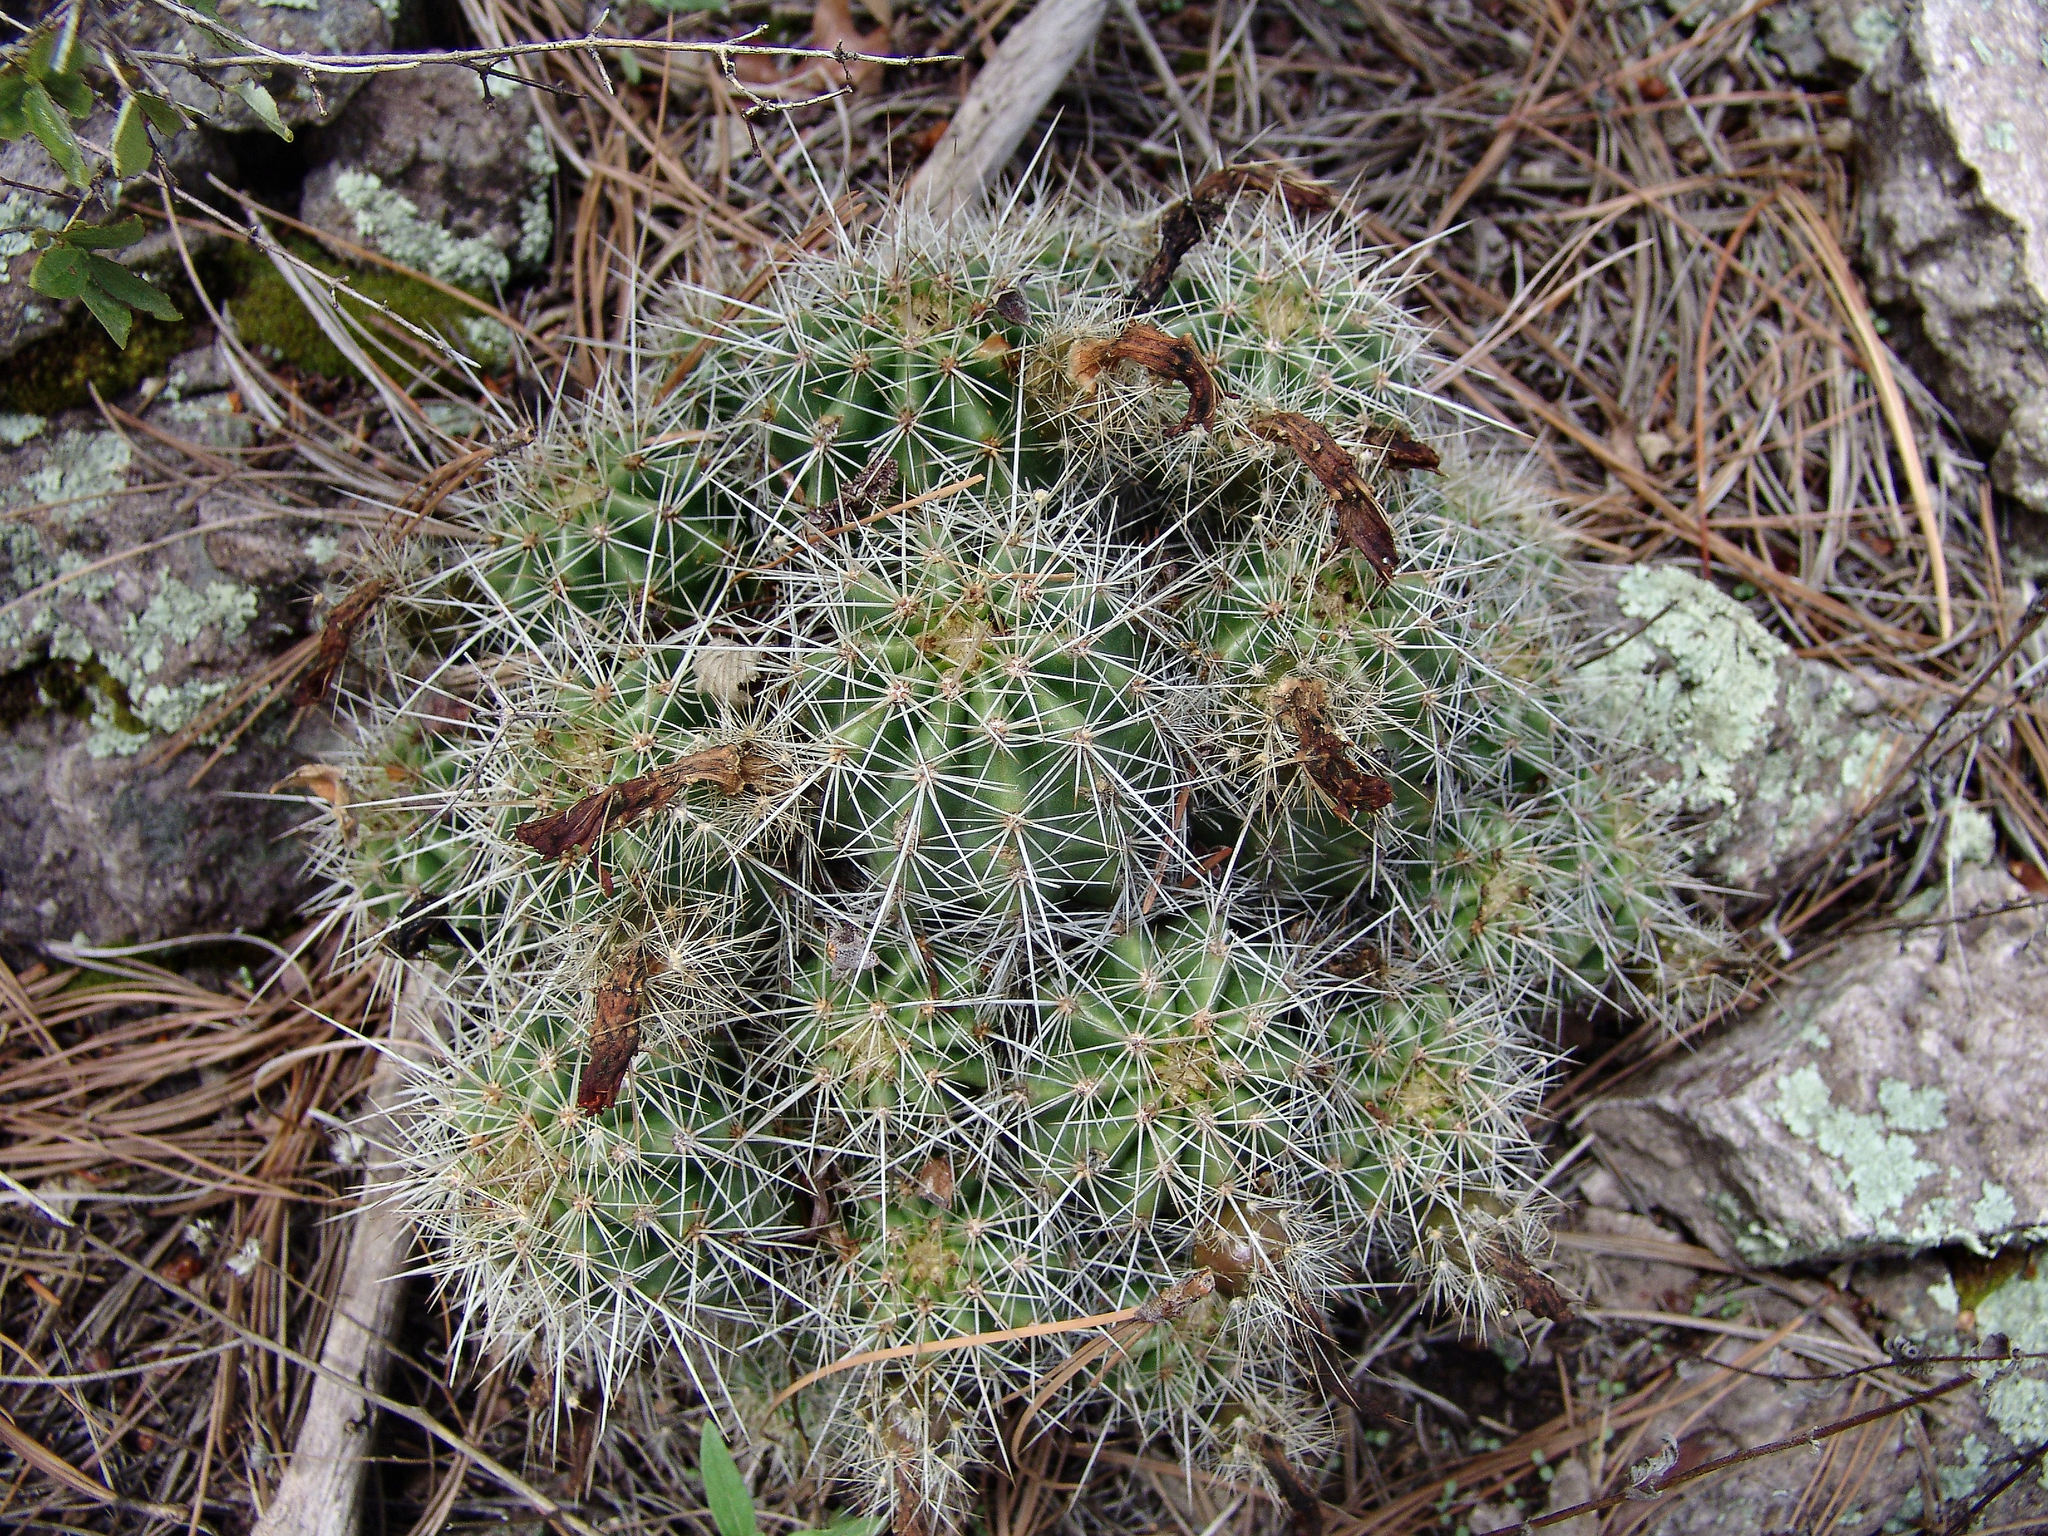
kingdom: Plantae
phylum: Tracheophyta
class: Magnoliopsida
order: Caryophyllales
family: Cactaceae
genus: Echinocereus
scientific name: Echinocereus coccineus
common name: Scarlet hedgehog cactus
